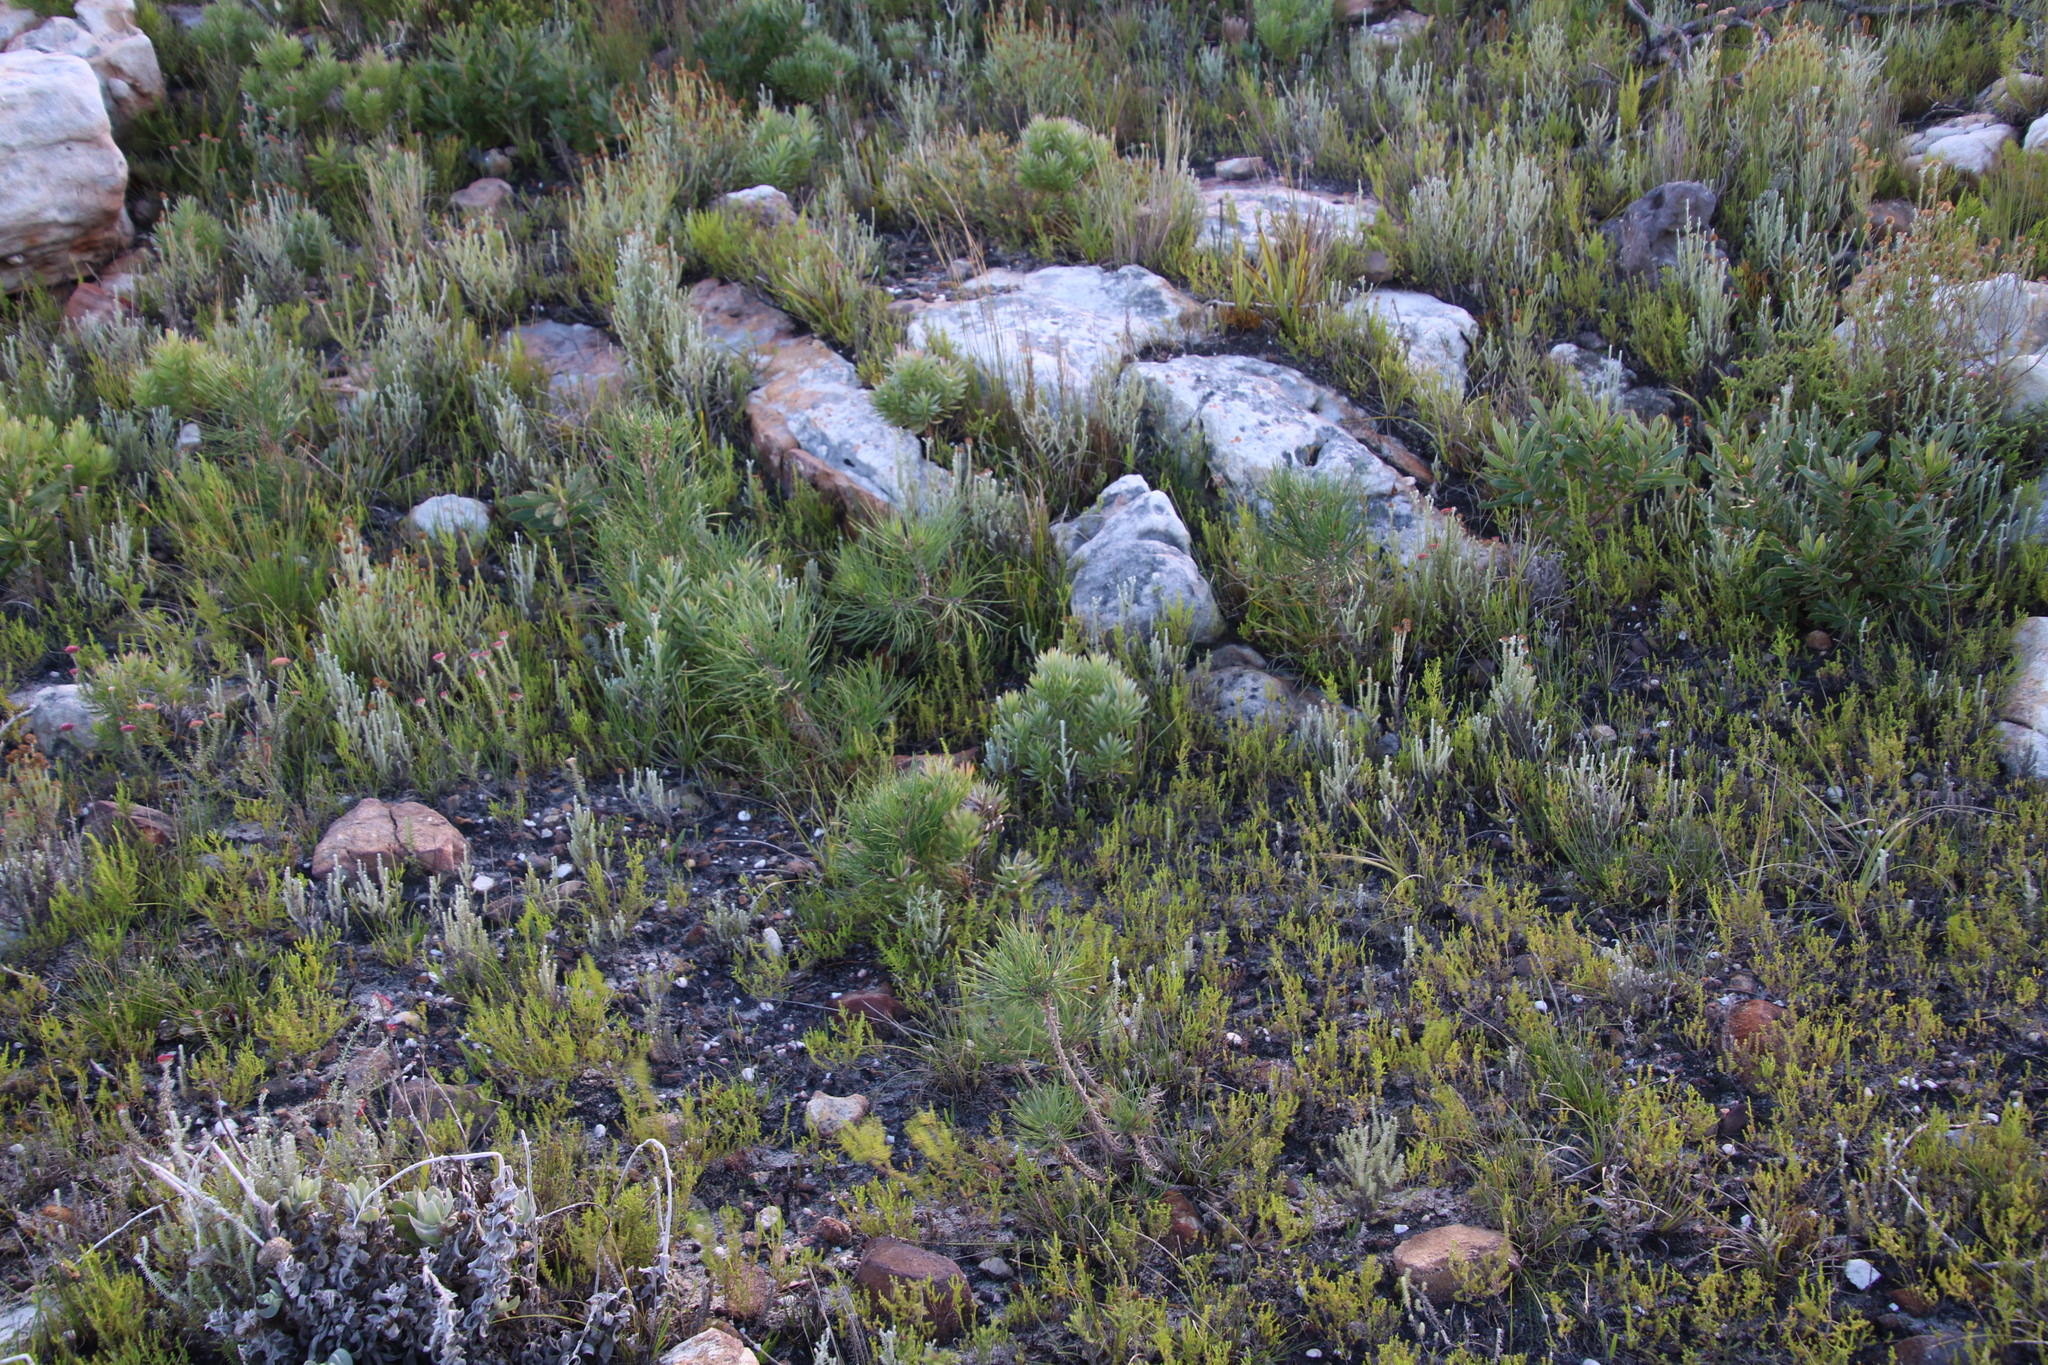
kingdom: Plantae
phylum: Tracheophyta
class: Pinopsida
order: Pinales
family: Pinaceae
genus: Pinus
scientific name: Pinus pinaster
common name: Maritime pine
